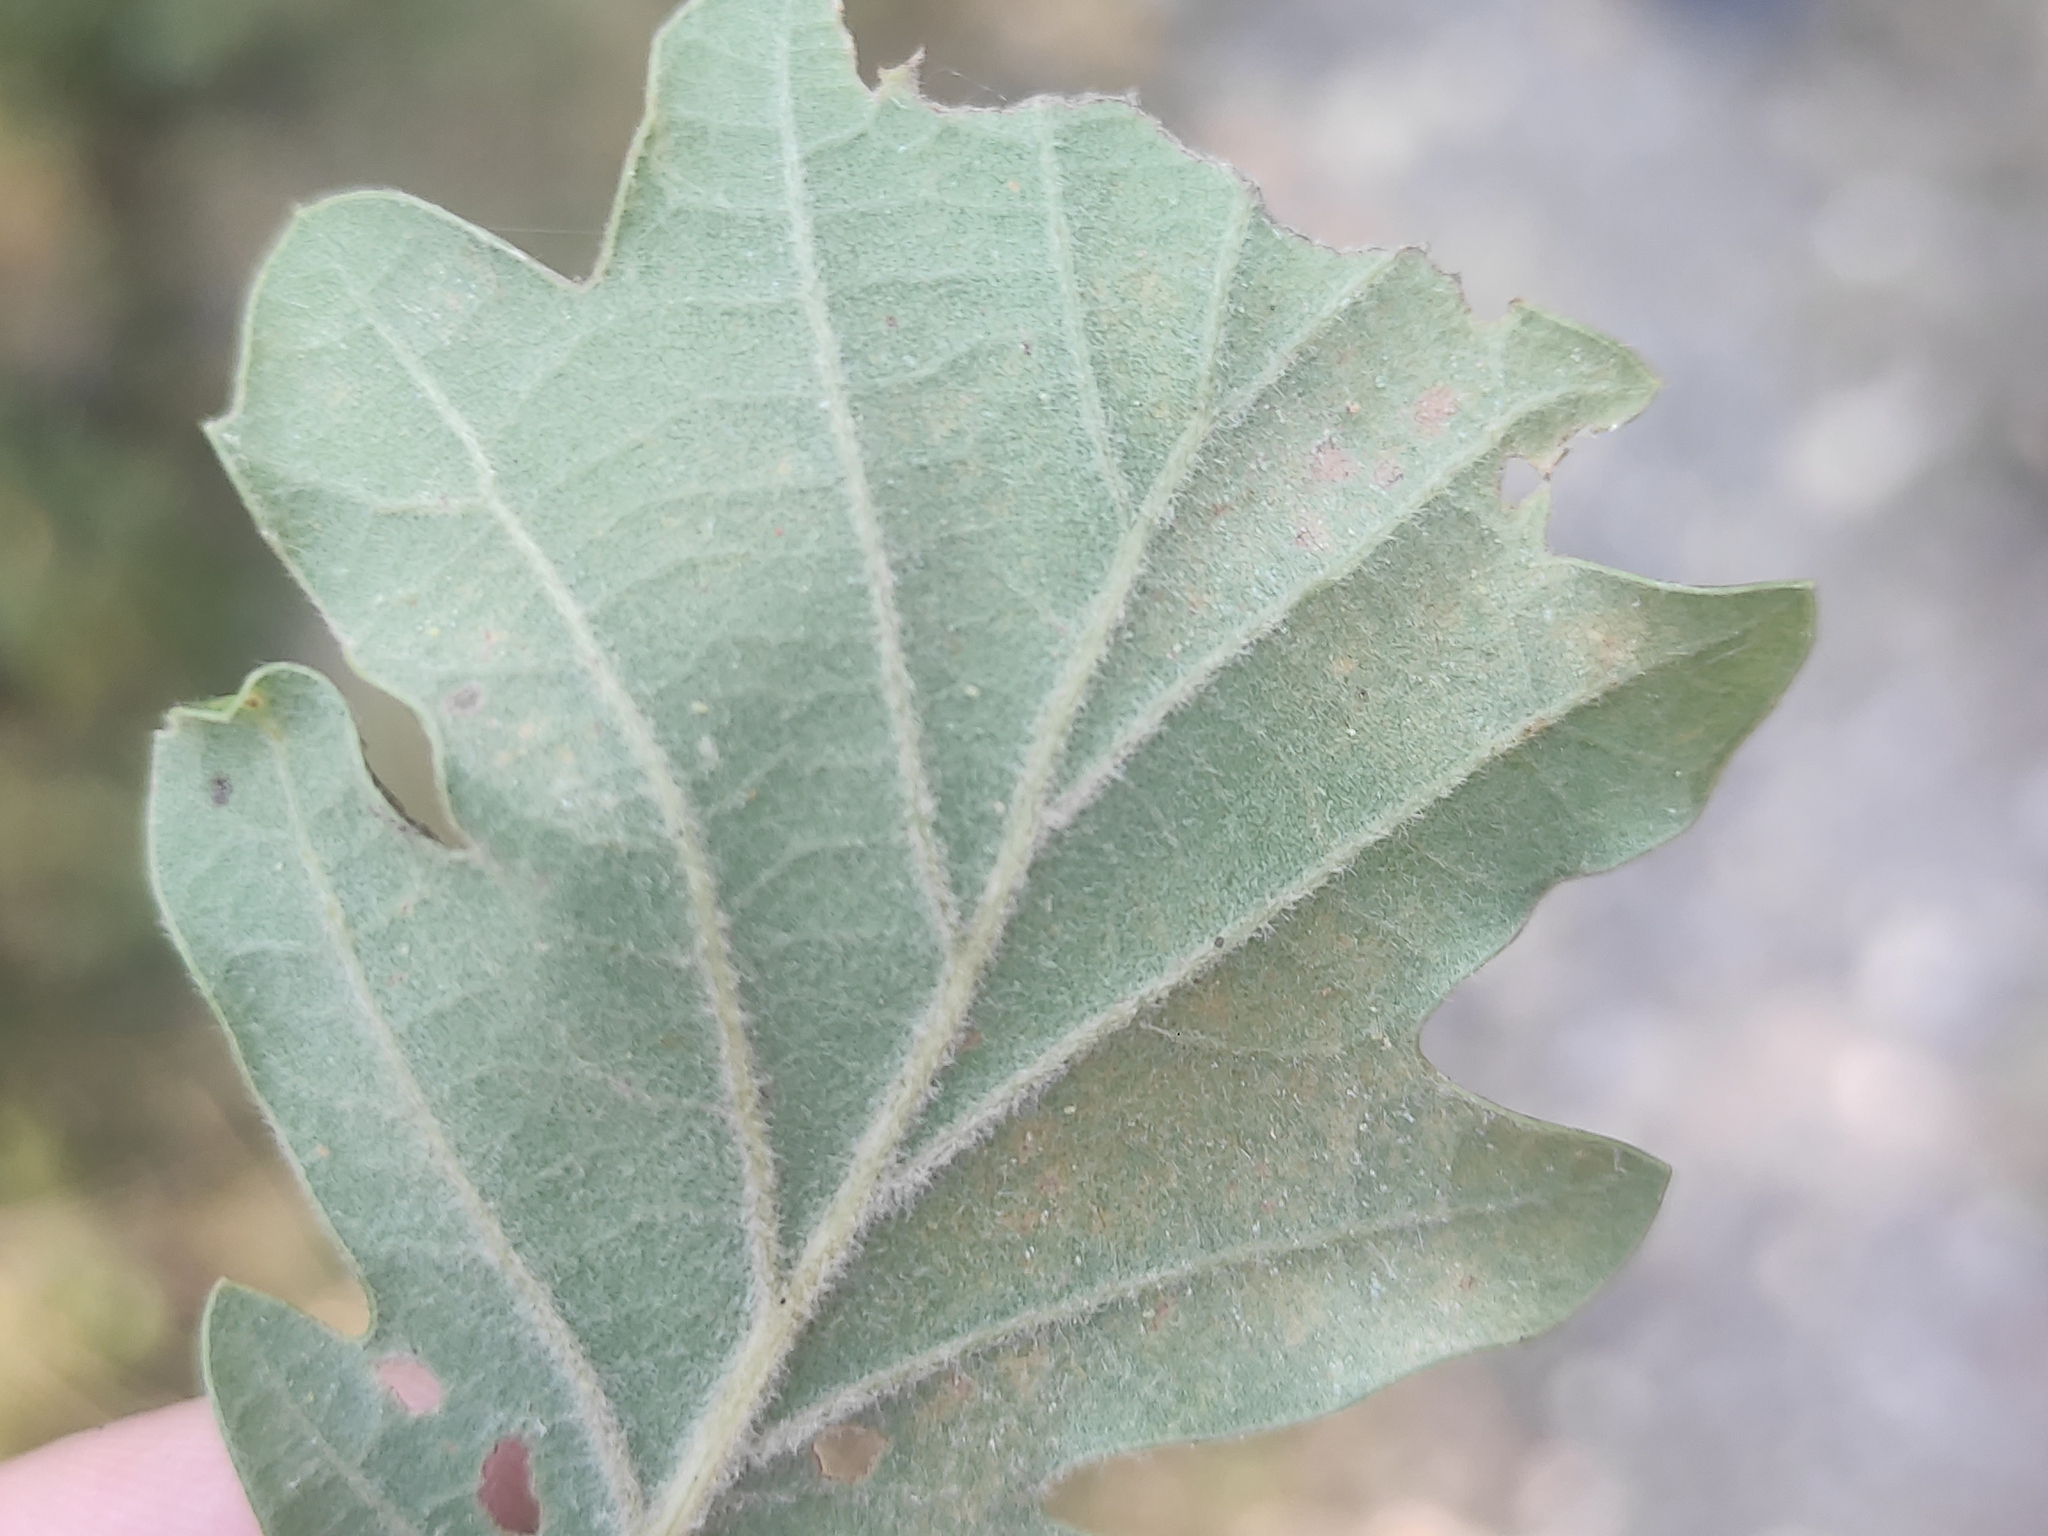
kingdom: Plantae
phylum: Tracheophyta
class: Magnoliopsida
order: Fagales
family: Fagaceae
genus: Quercus
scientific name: Quercus pubescens
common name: Downy oak
